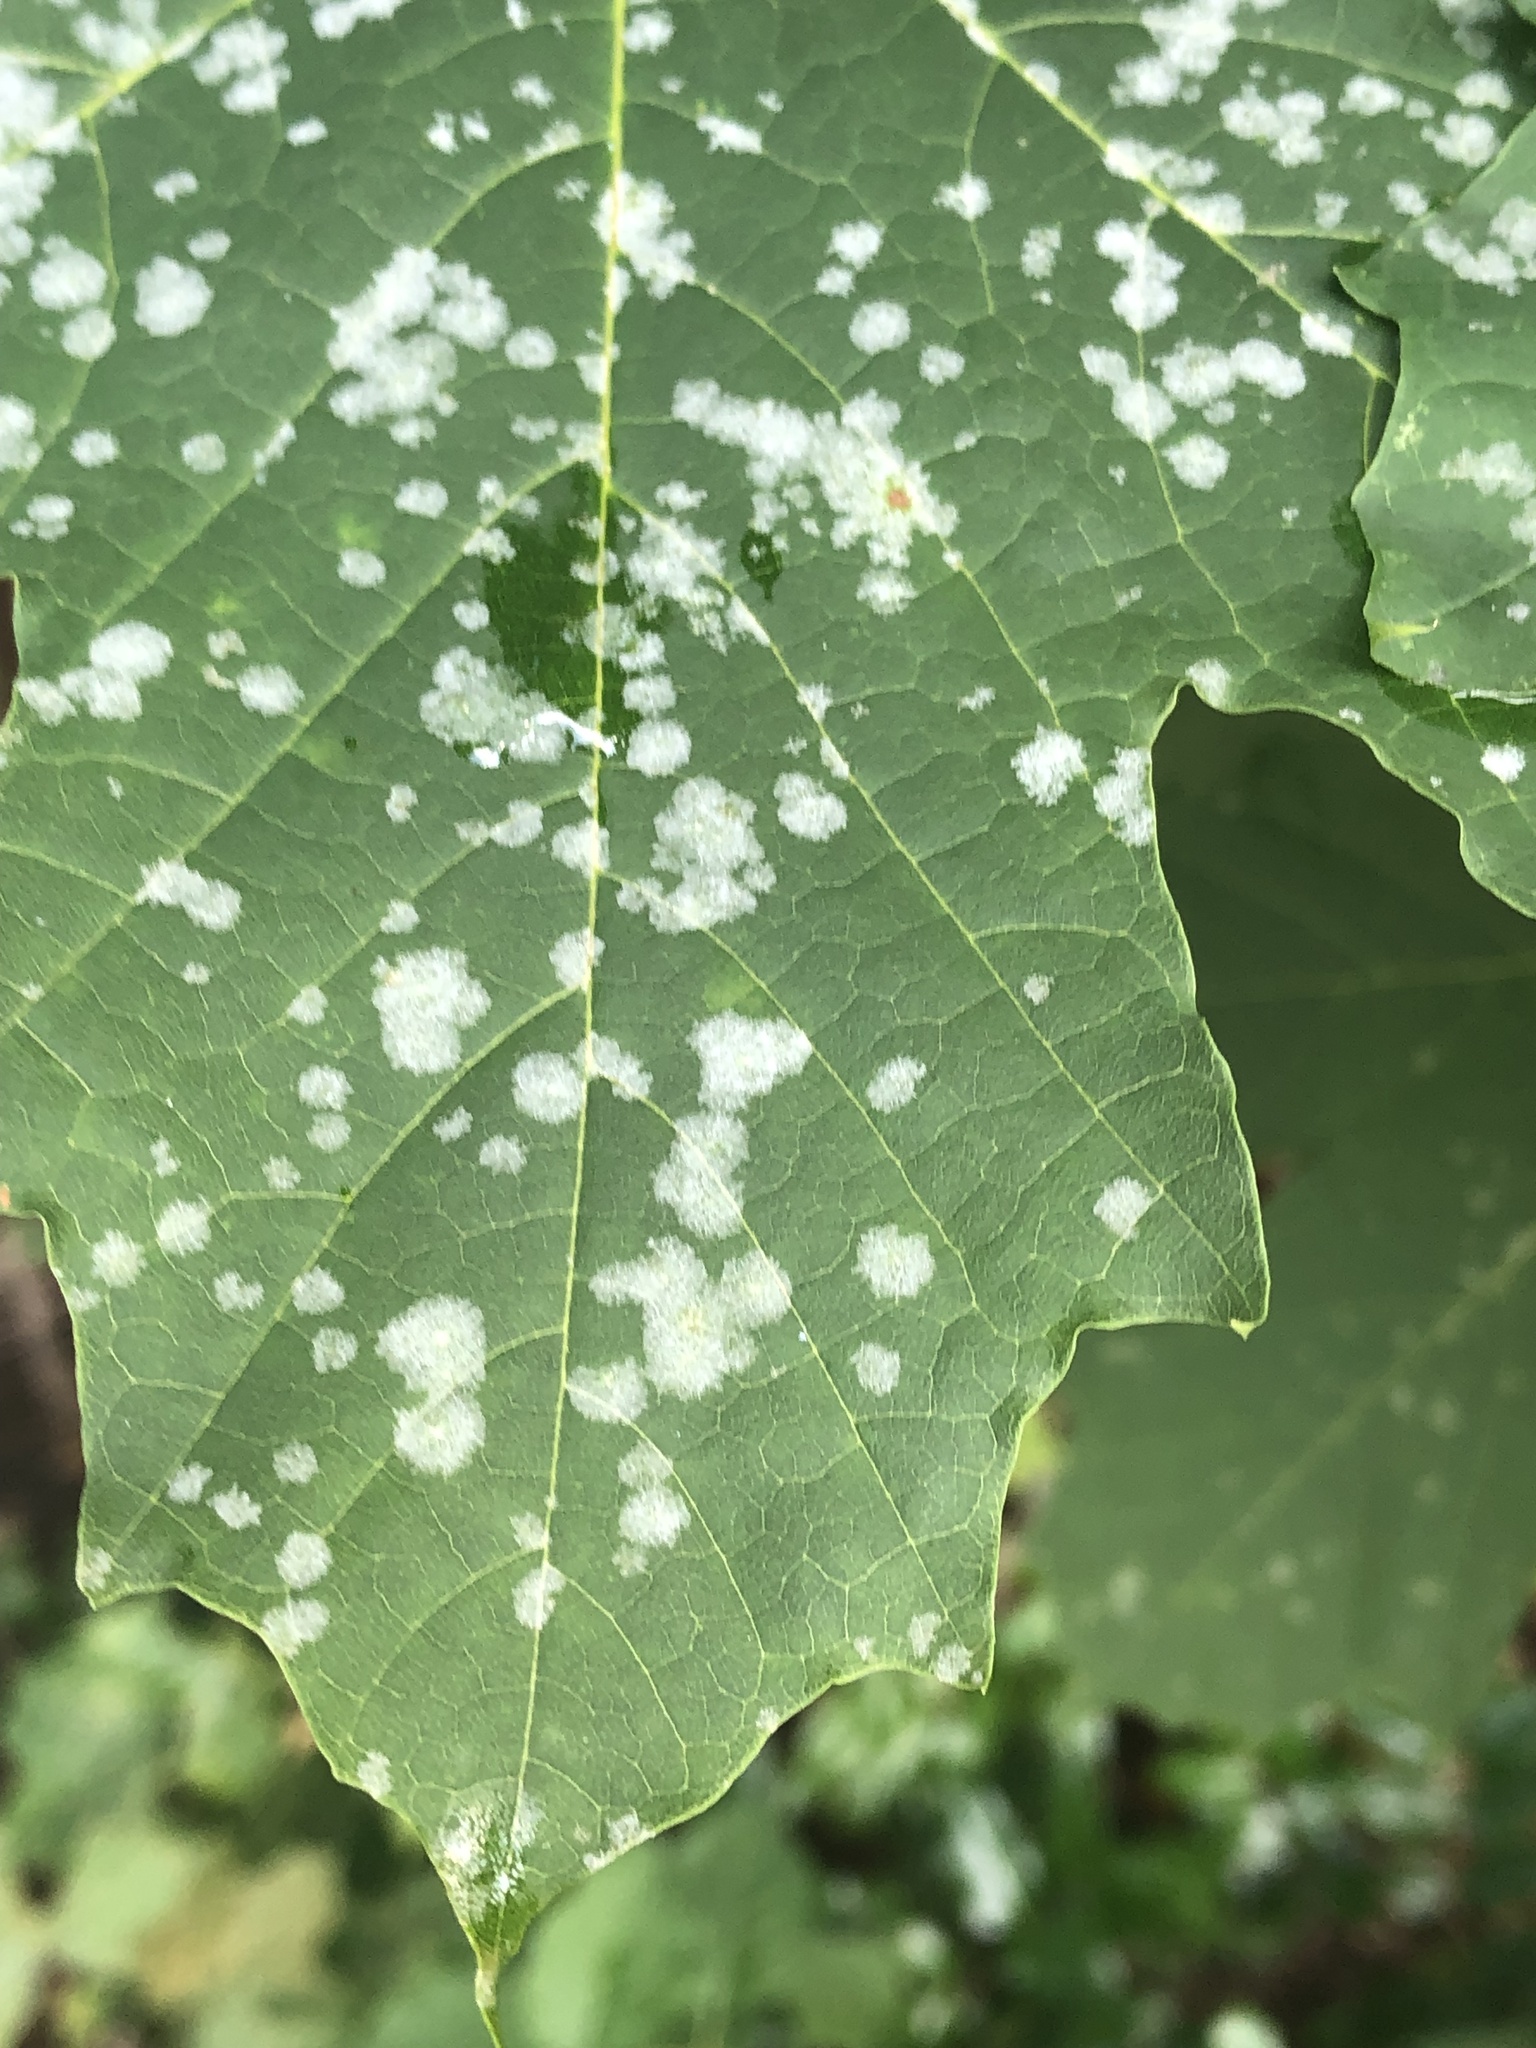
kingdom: Fungi
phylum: Ascomycota
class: Leotiomycetes
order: Helotiales
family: Erysiphaceae
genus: Sawadaea
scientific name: Sawadaea tulasnei
